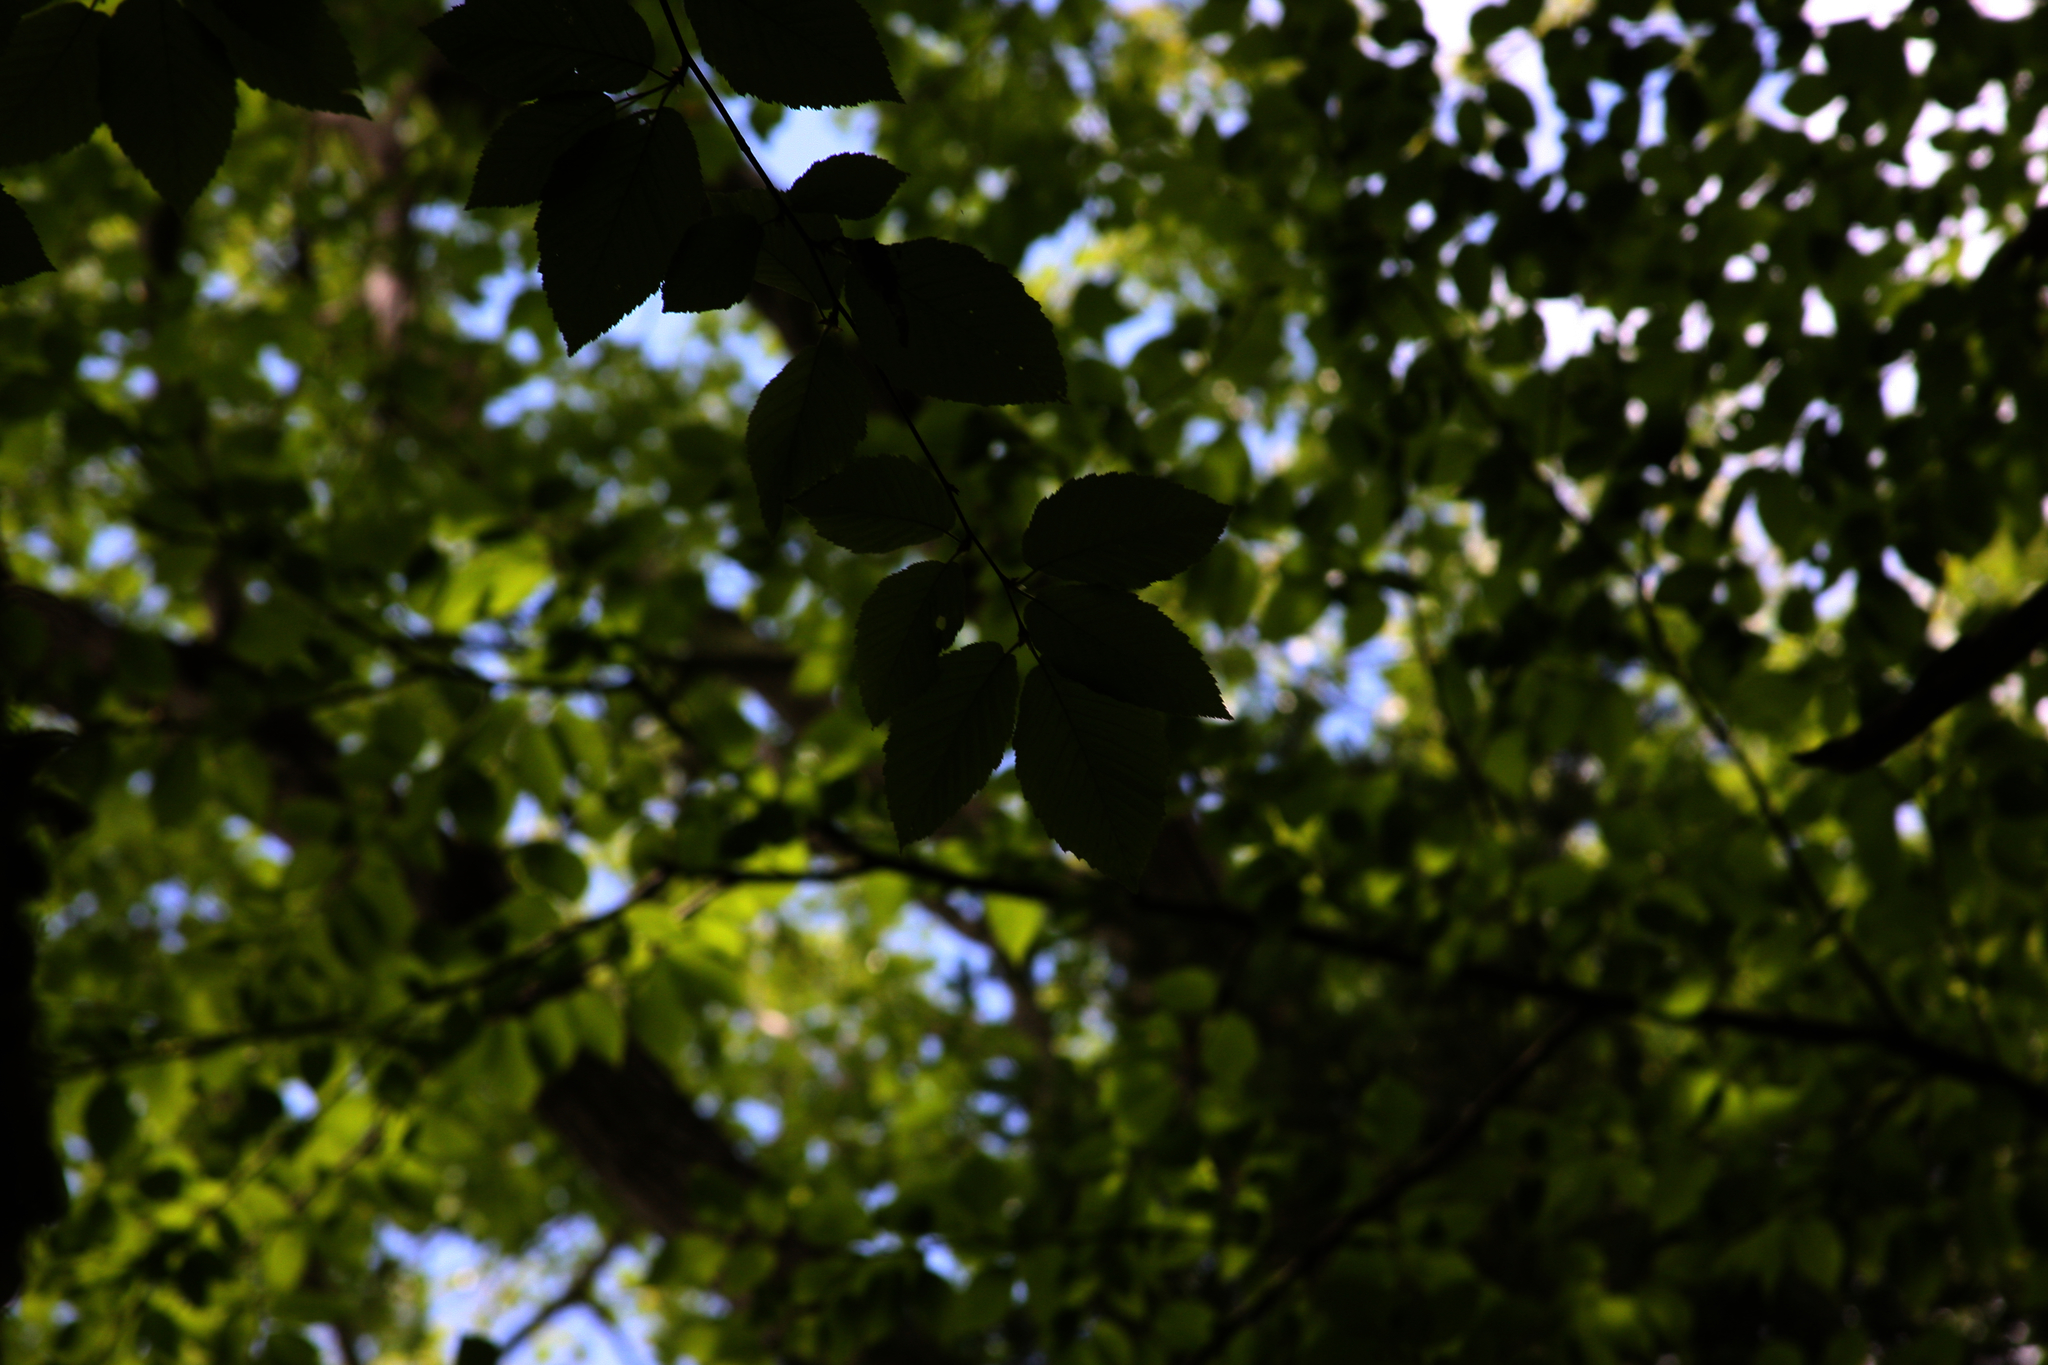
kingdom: Plantae
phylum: Tracheophyta
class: Magnoliopsida
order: Fagales
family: Betulaceae
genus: Betula
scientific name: Betula alleghaniensis
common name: Yellow birch
